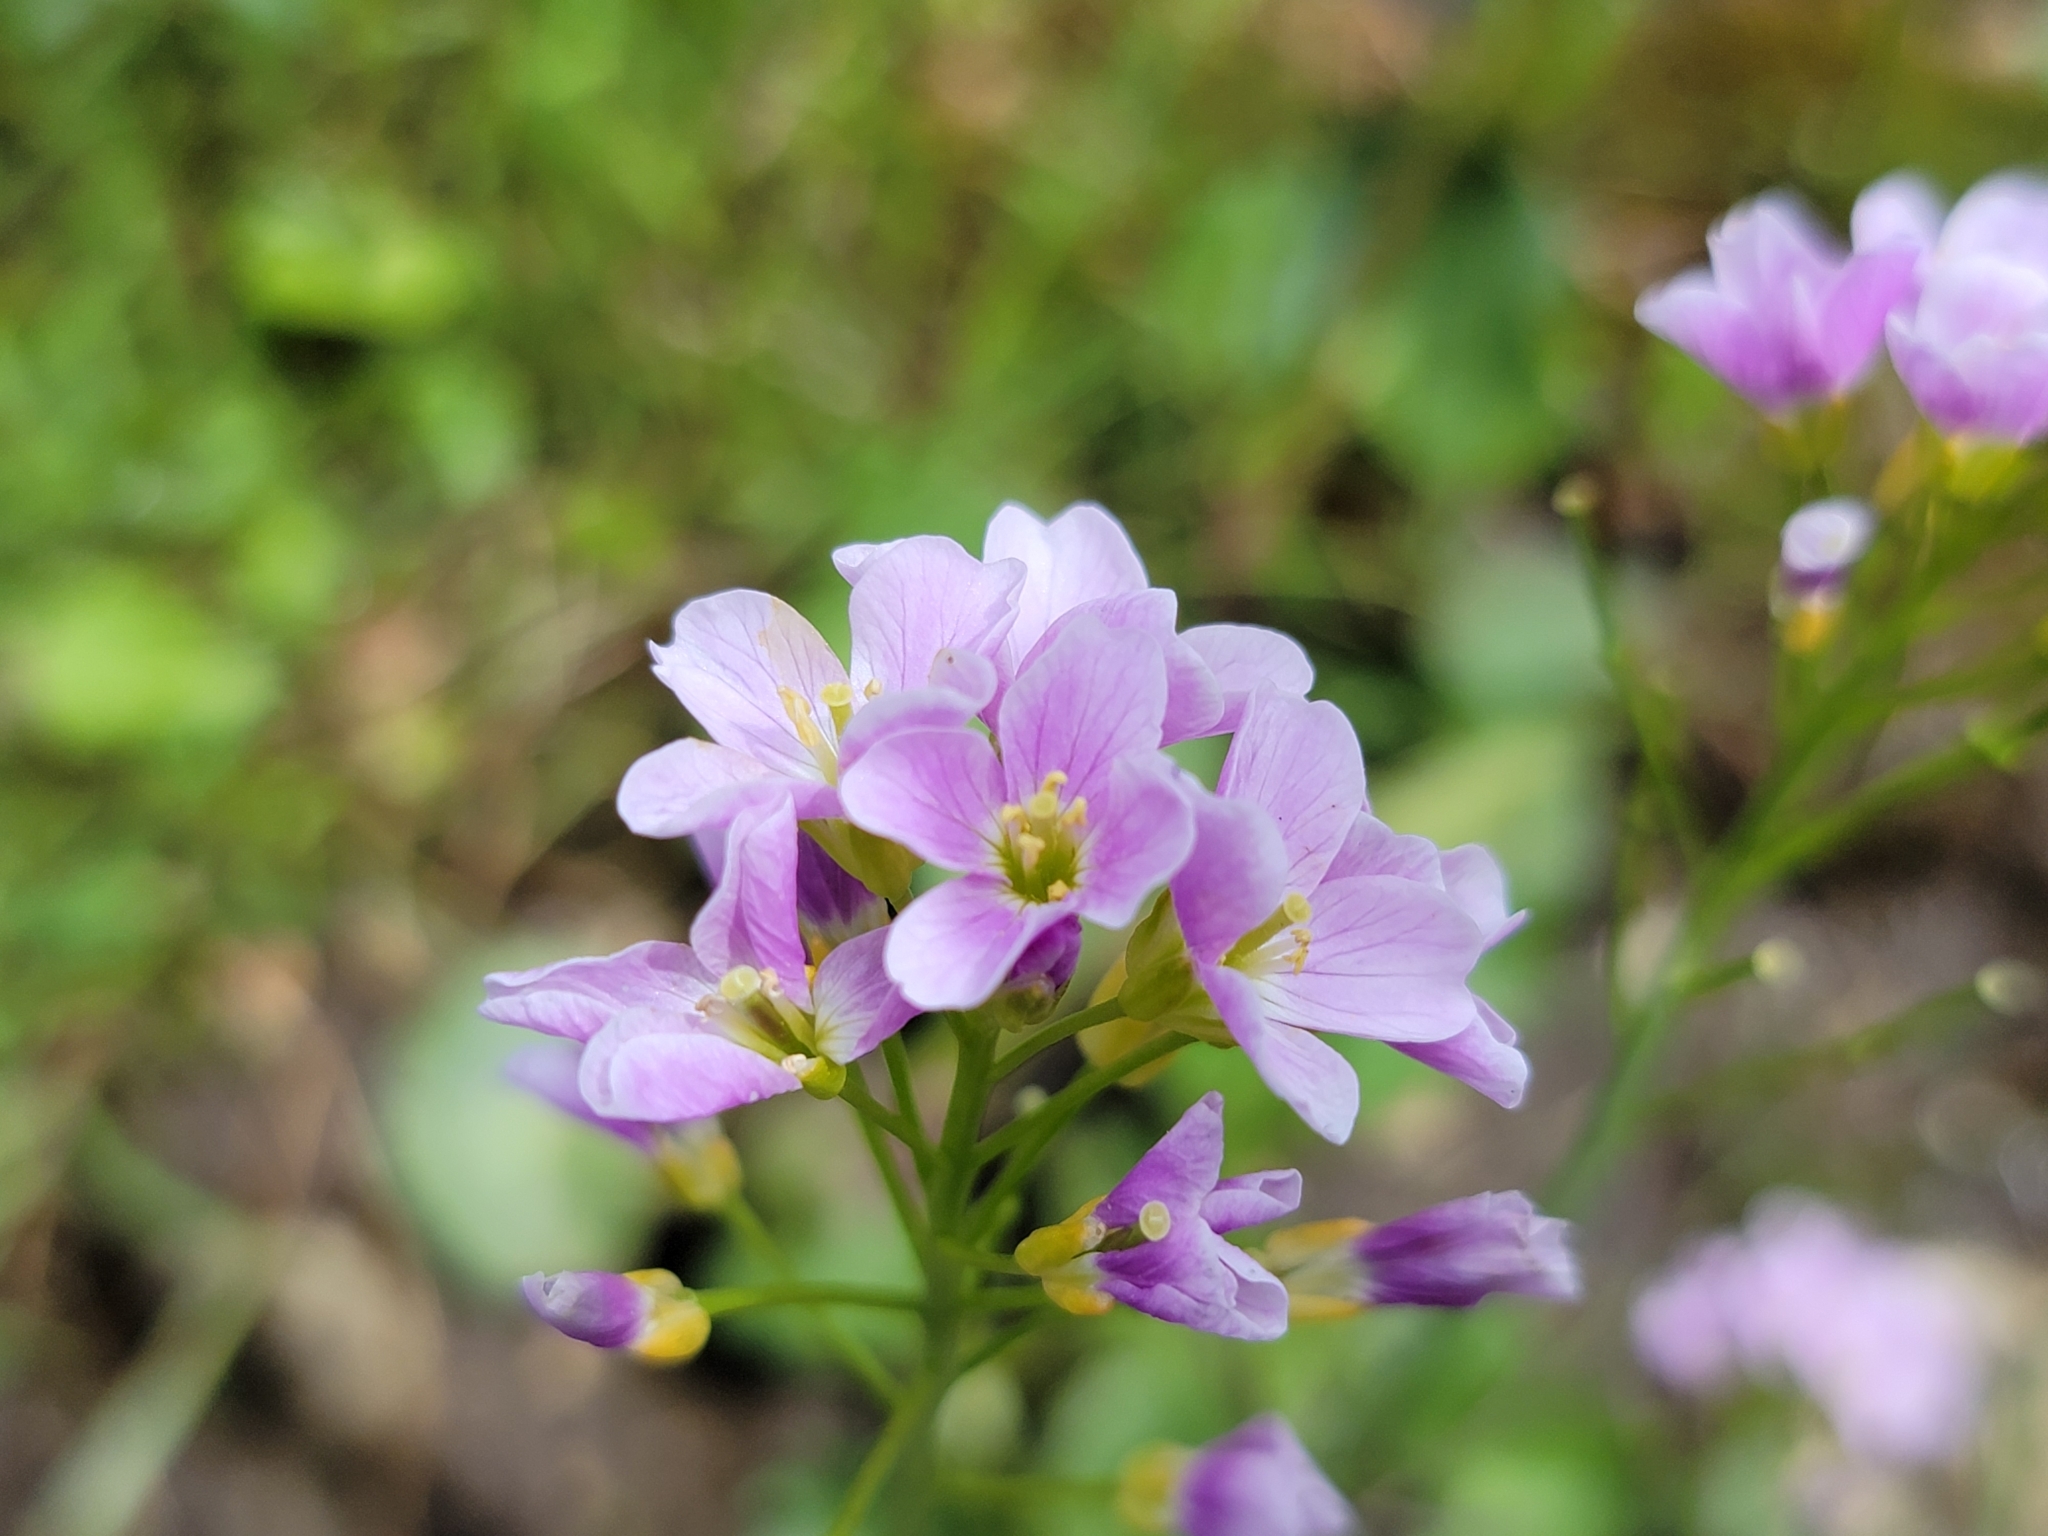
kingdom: Plantae
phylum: Tracheophyta
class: Magnoliopsida
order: Brassicales
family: Brassicaceae
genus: Cardamine
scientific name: Cardamine pratensis
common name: Cuckoo flower
